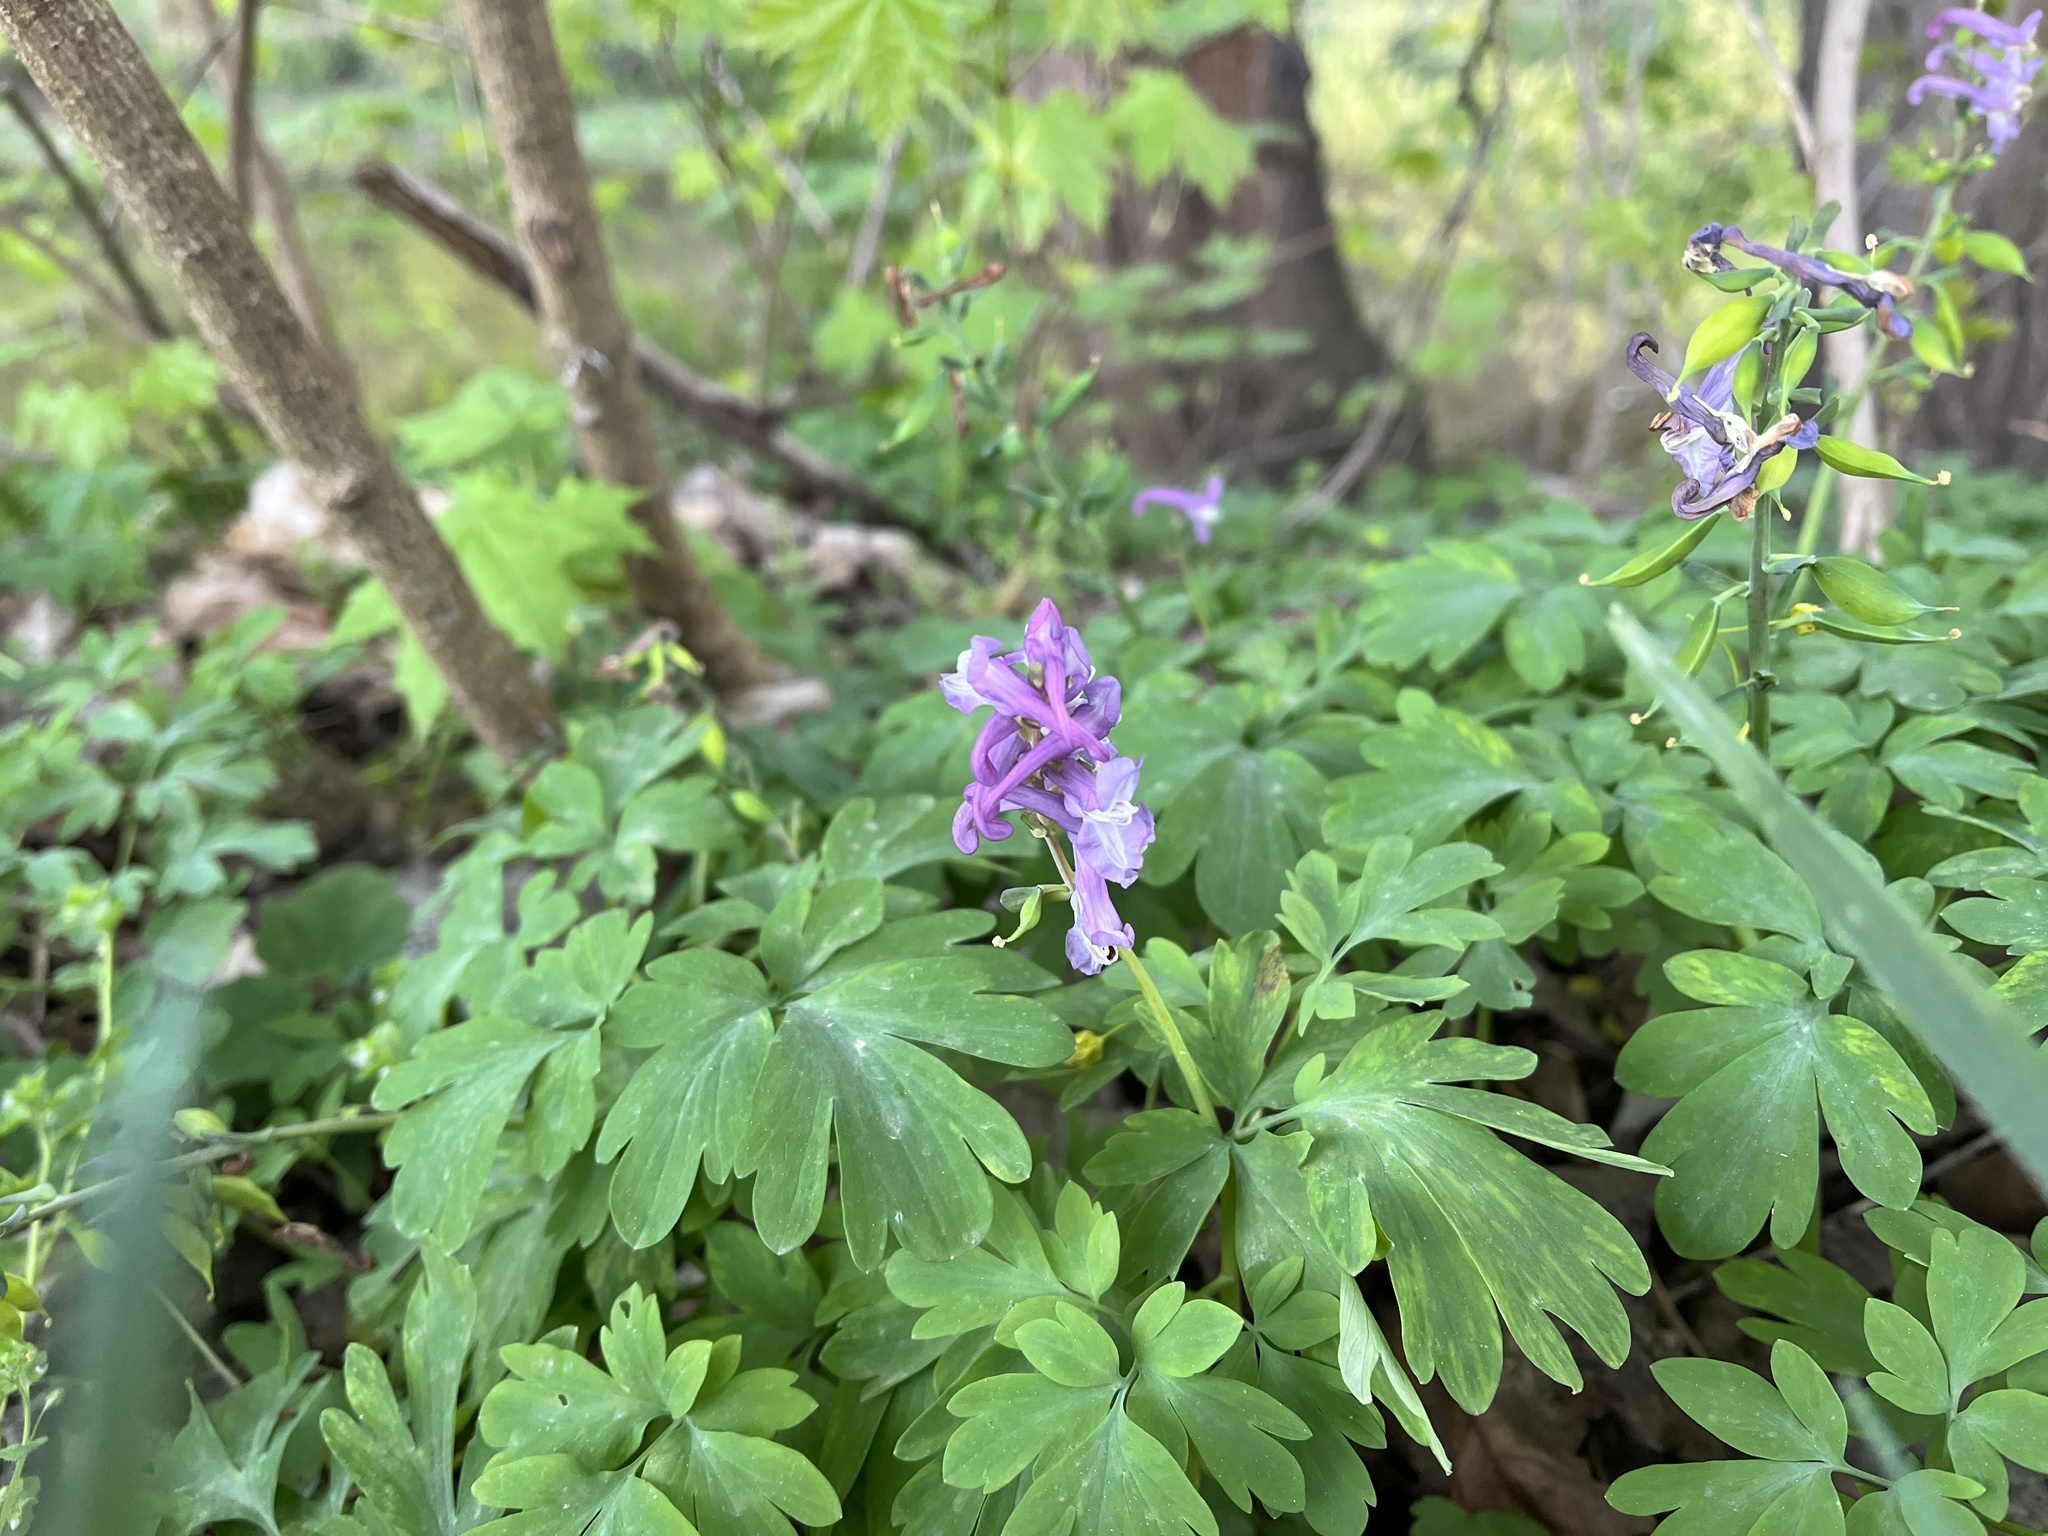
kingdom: Plantae
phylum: Tracheophyta
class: Magnoliopsida
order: Ranunculales
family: Papaveraceae
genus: Corydalis
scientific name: Corydalis cava
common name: Hollowroot
